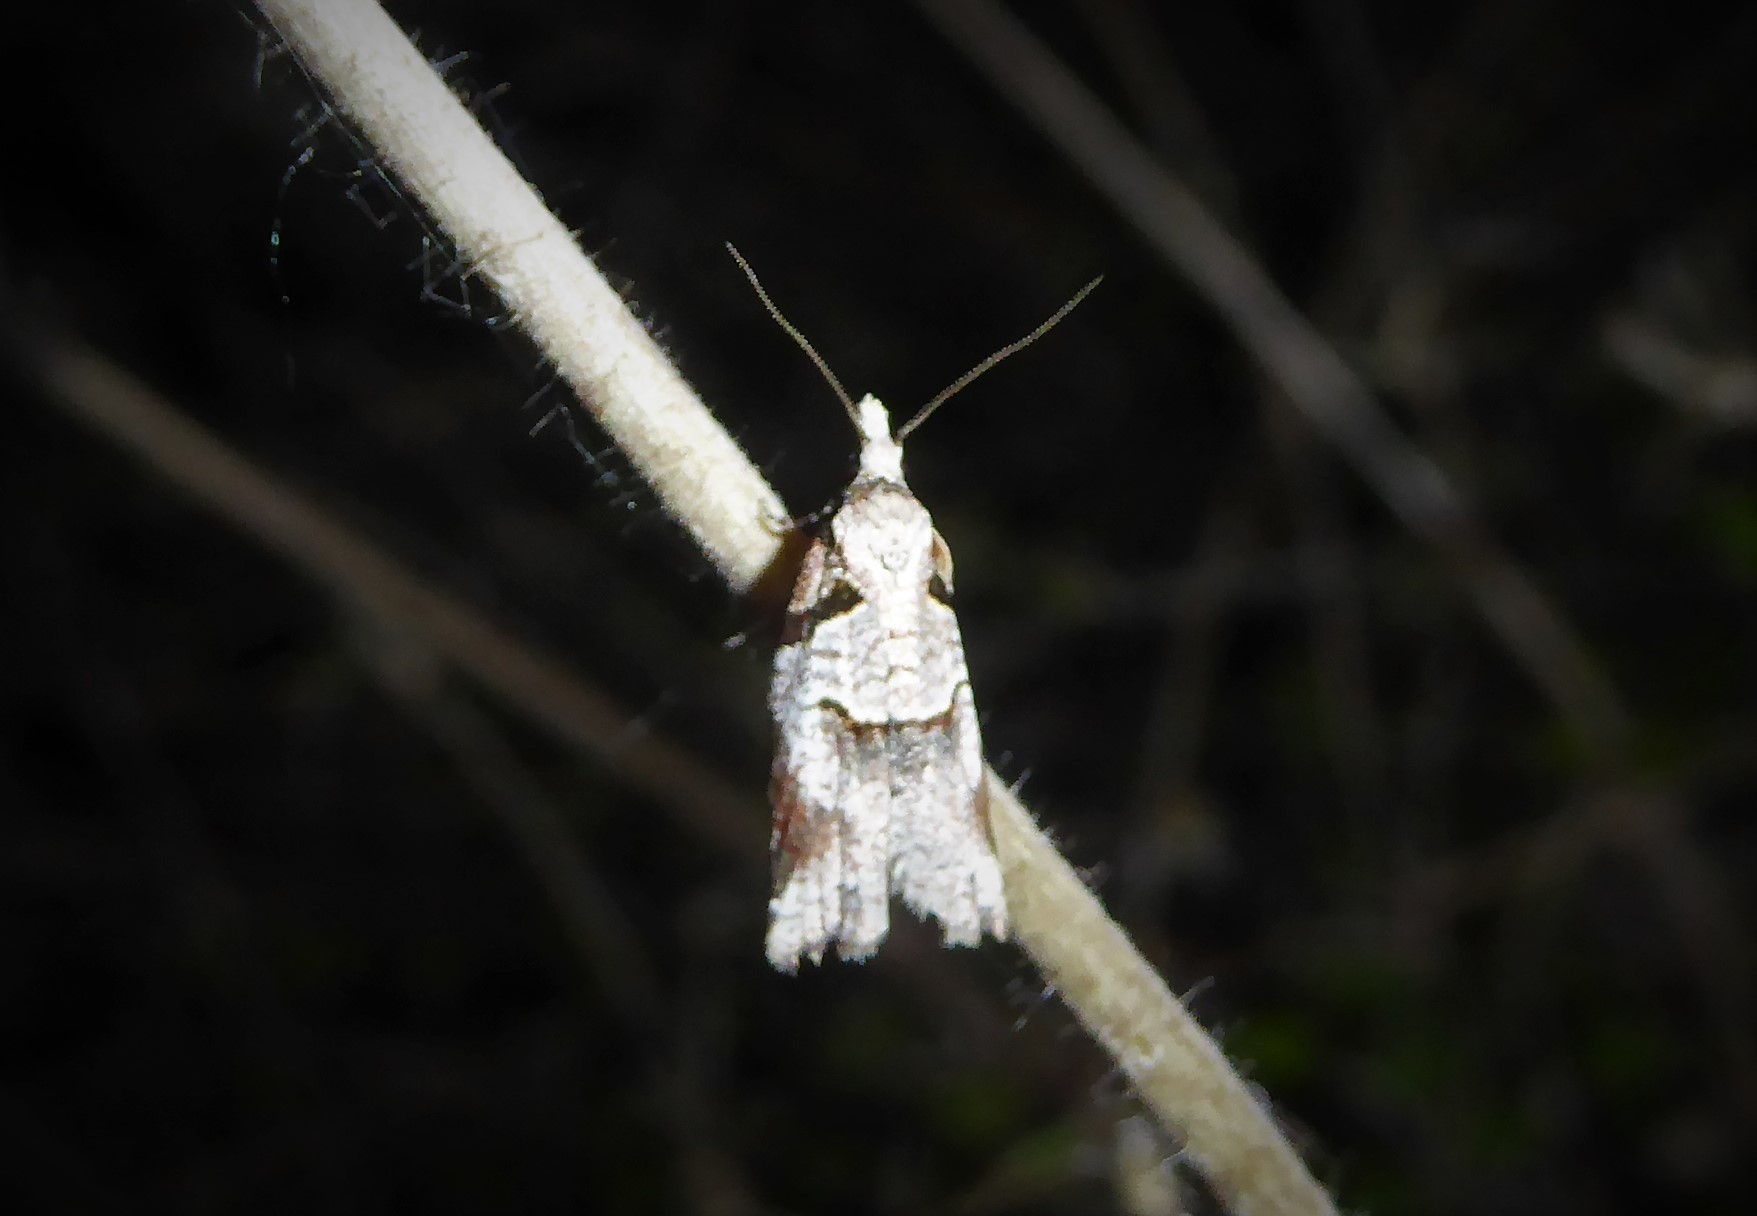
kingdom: Animalia
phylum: Arthropoda
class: Insecta
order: Lepidoptera
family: Tortricidae
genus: Harmologa
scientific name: Harmologa amplexana
